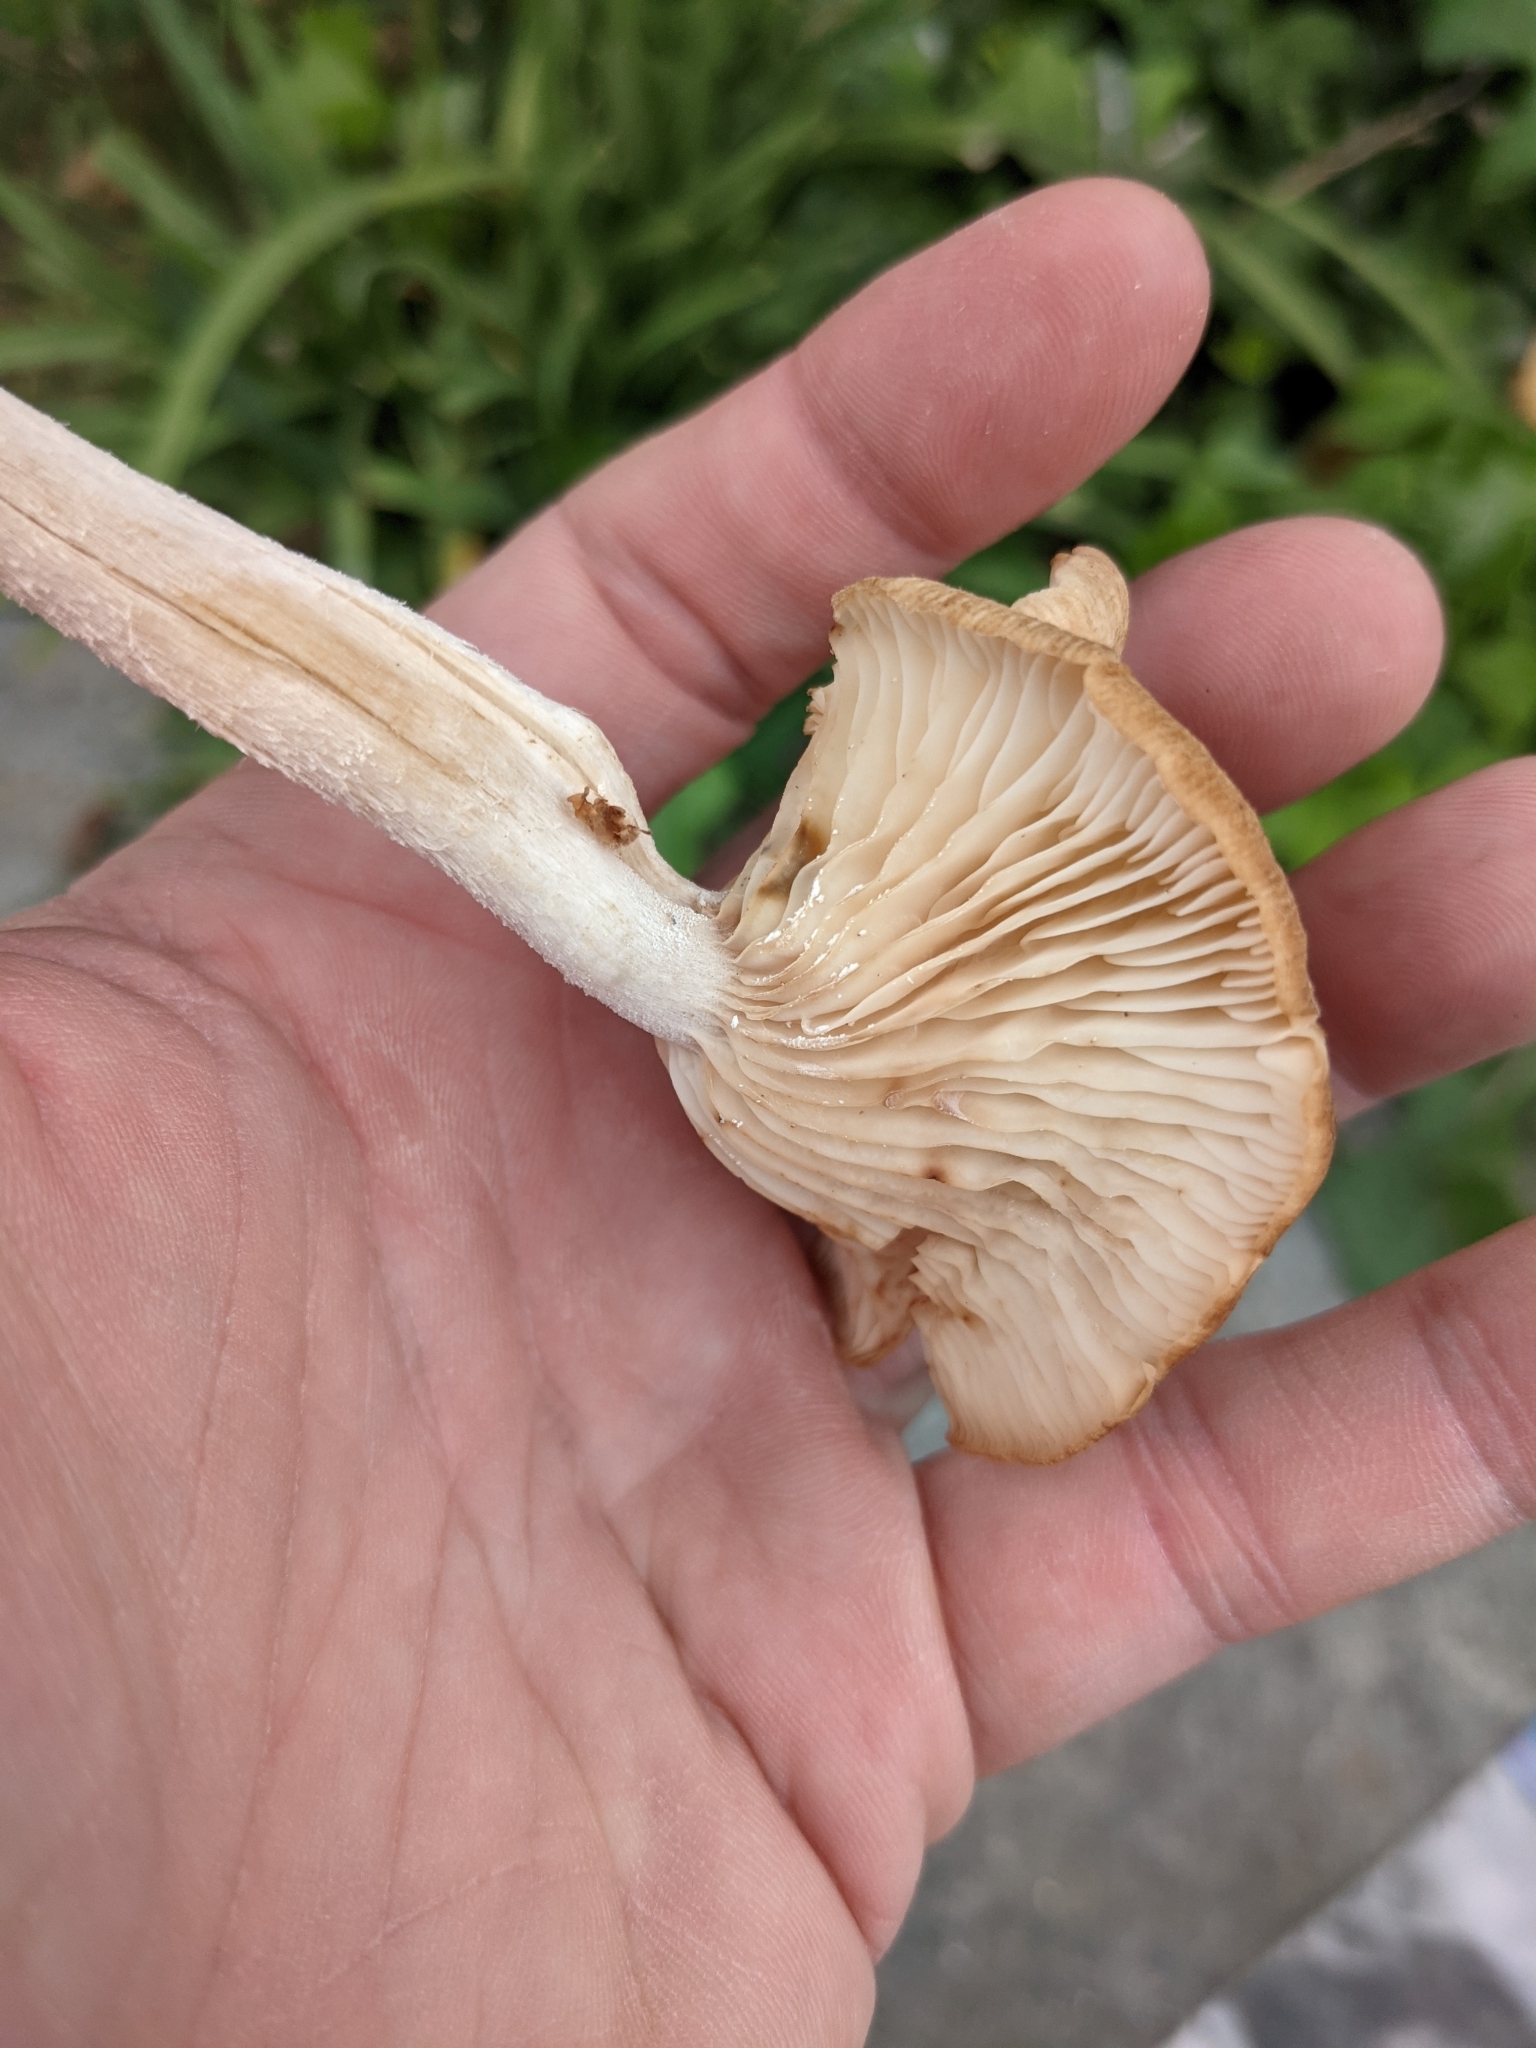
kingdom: Fungi
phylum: Basidiomycota
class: Agaricomycetes
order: Agaricales
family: Physalacriaceae
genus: Desarmillaria
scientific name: Desarmillaria caespitosa
